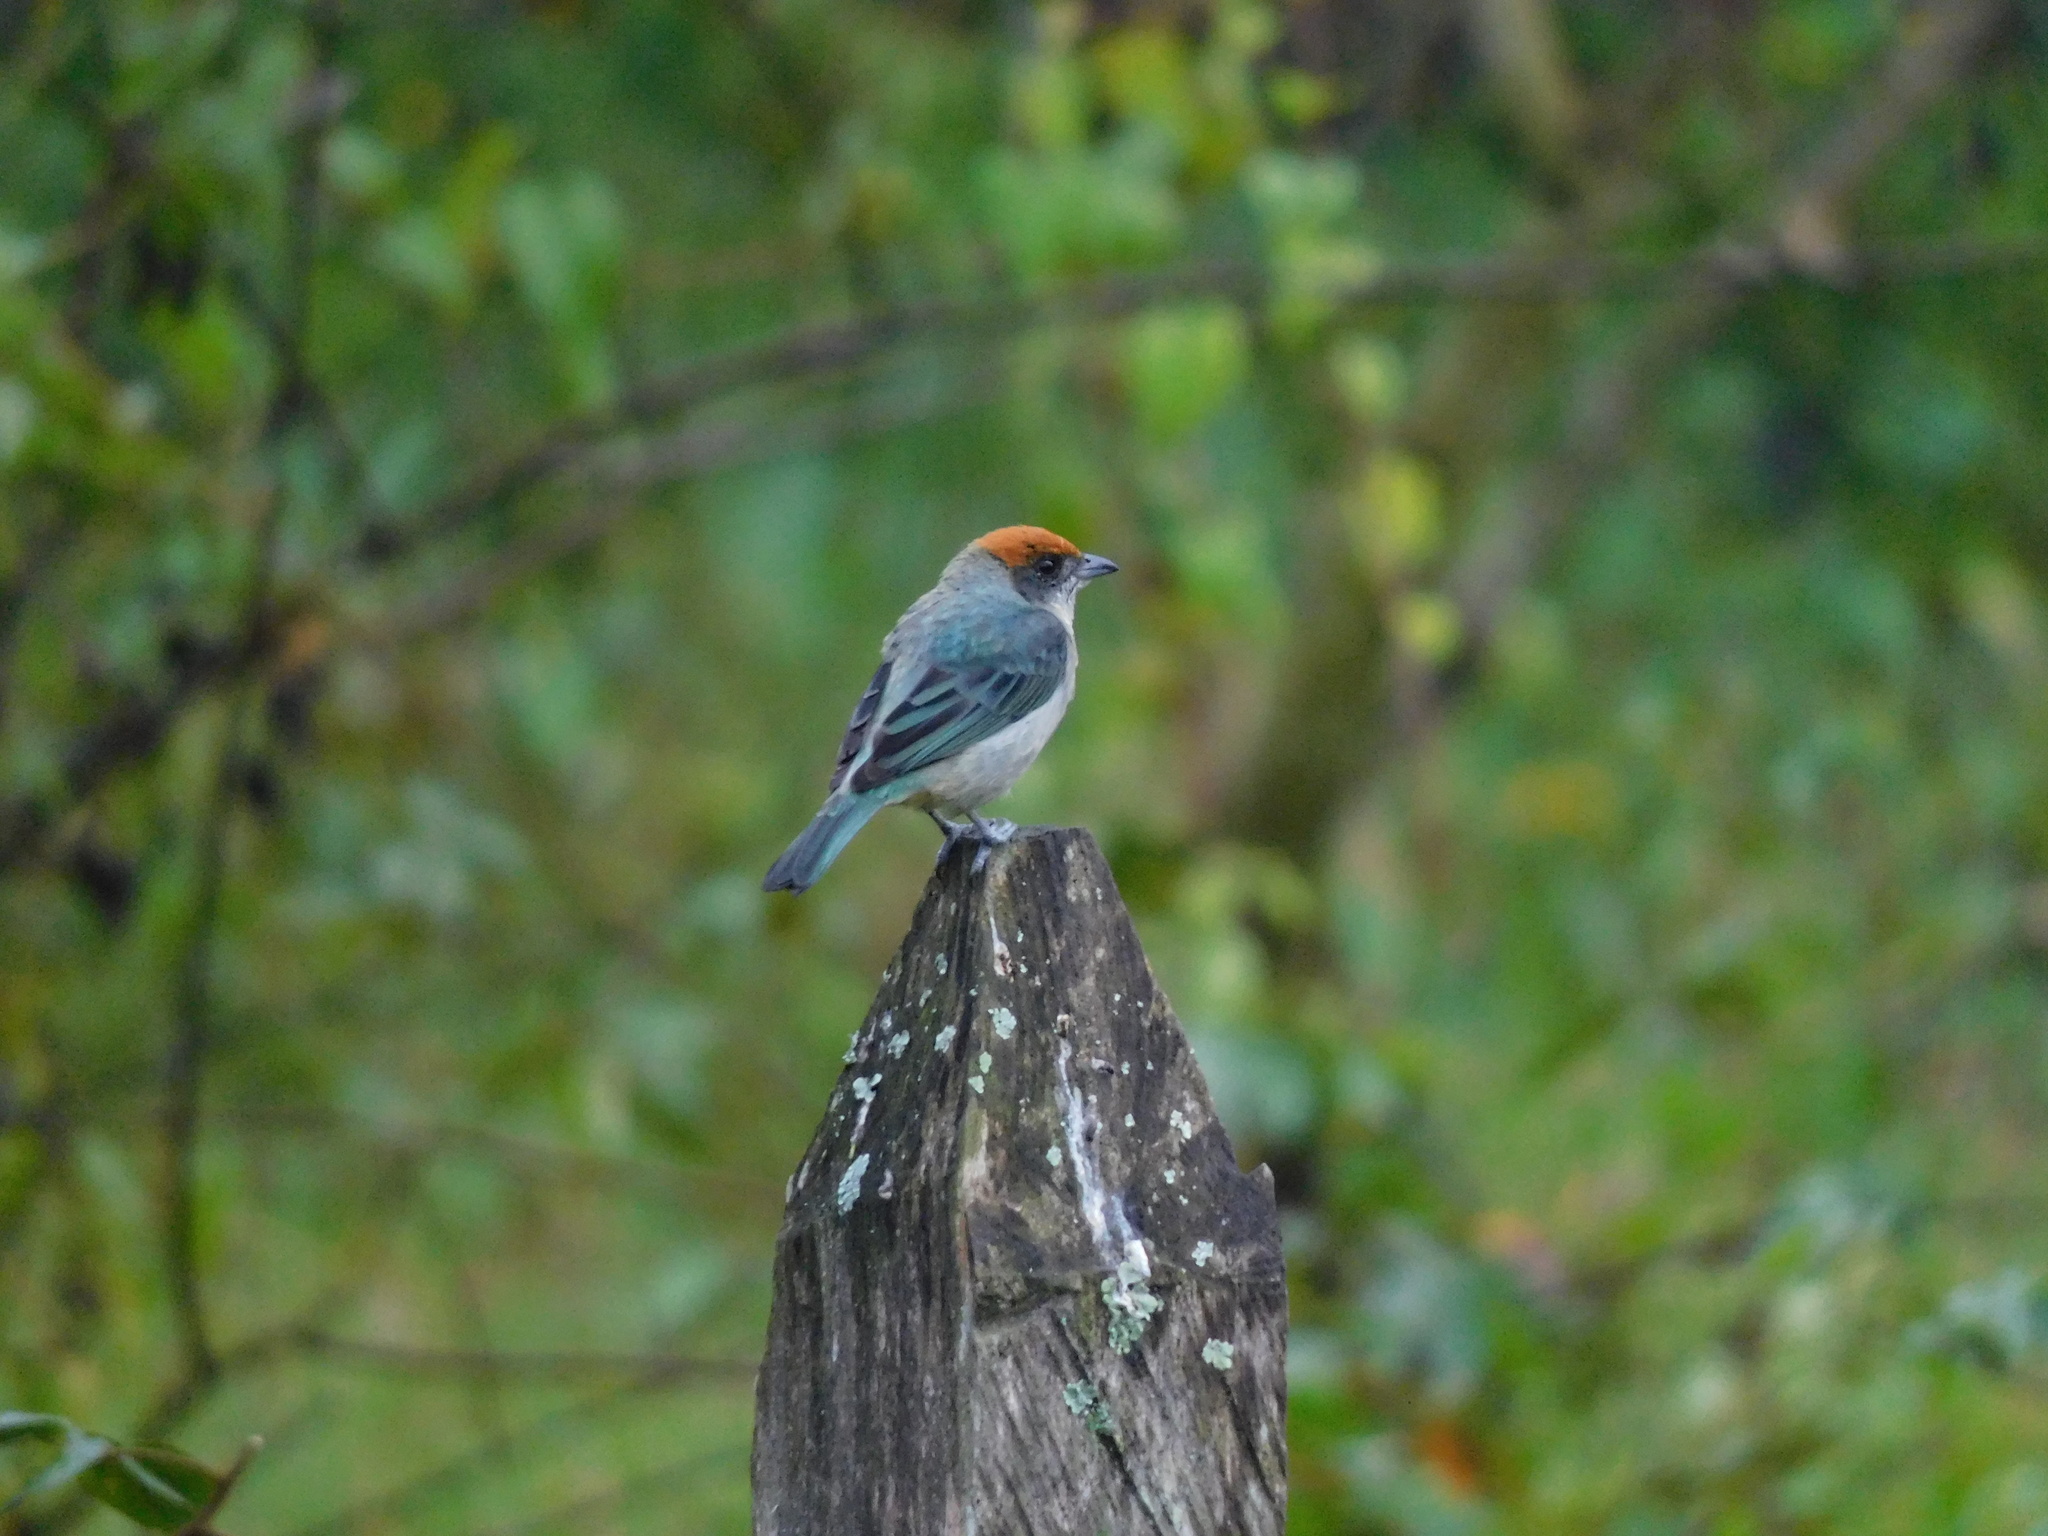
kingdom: Animalia
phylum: Chordata
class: Aves
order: Passeriformes
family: Thraupidae
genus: Stilpnia
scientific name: Stilpnia vitriolina
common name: Scrub tanager
